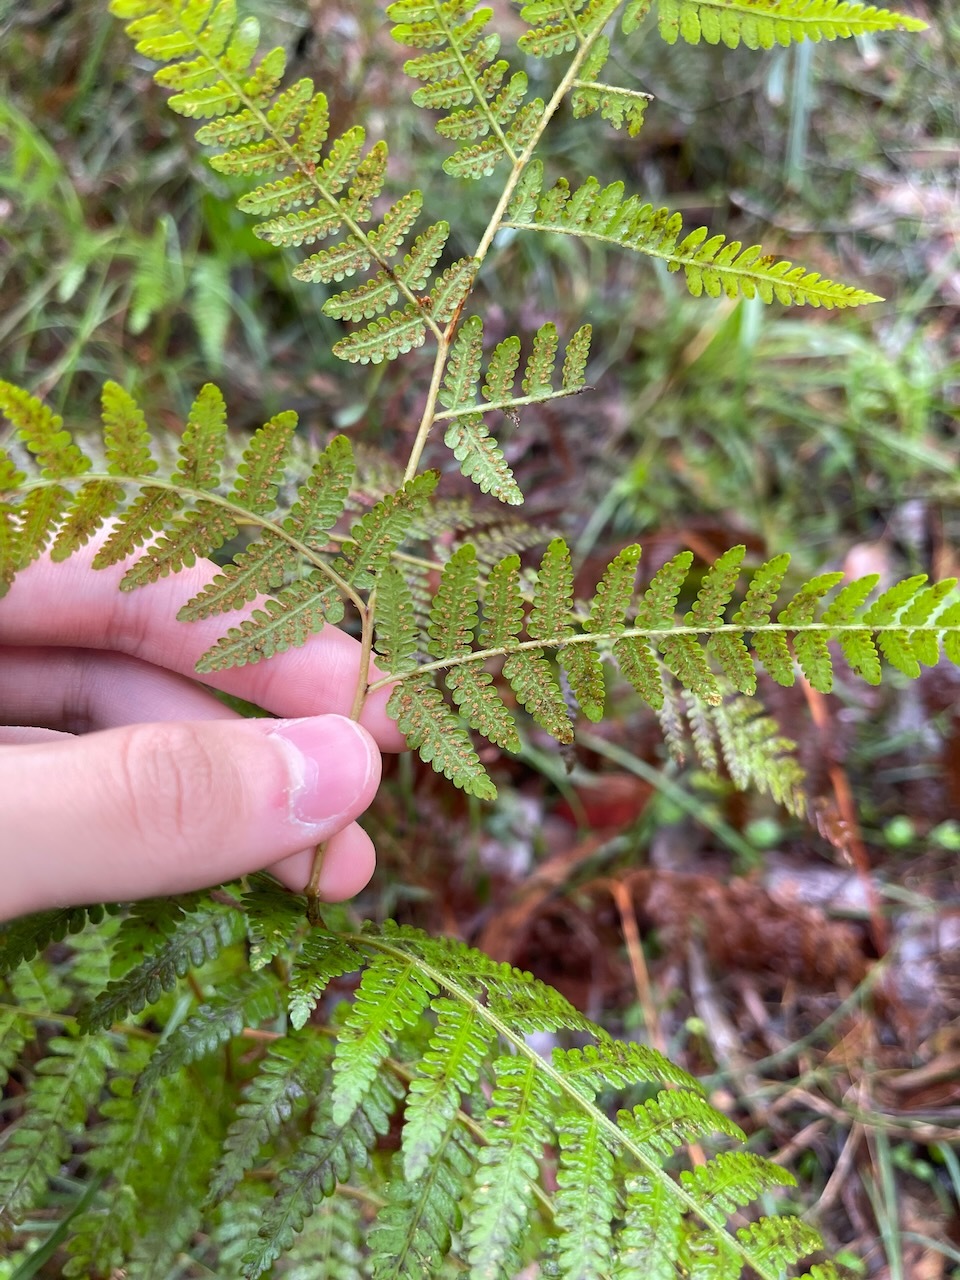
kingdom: Plantae
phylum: Tracheophyta
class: Polypodiopsida
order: Polypodiales
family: Dennstaedtiaceae
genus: Hypolepis
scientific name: Hypolepis muelleri
